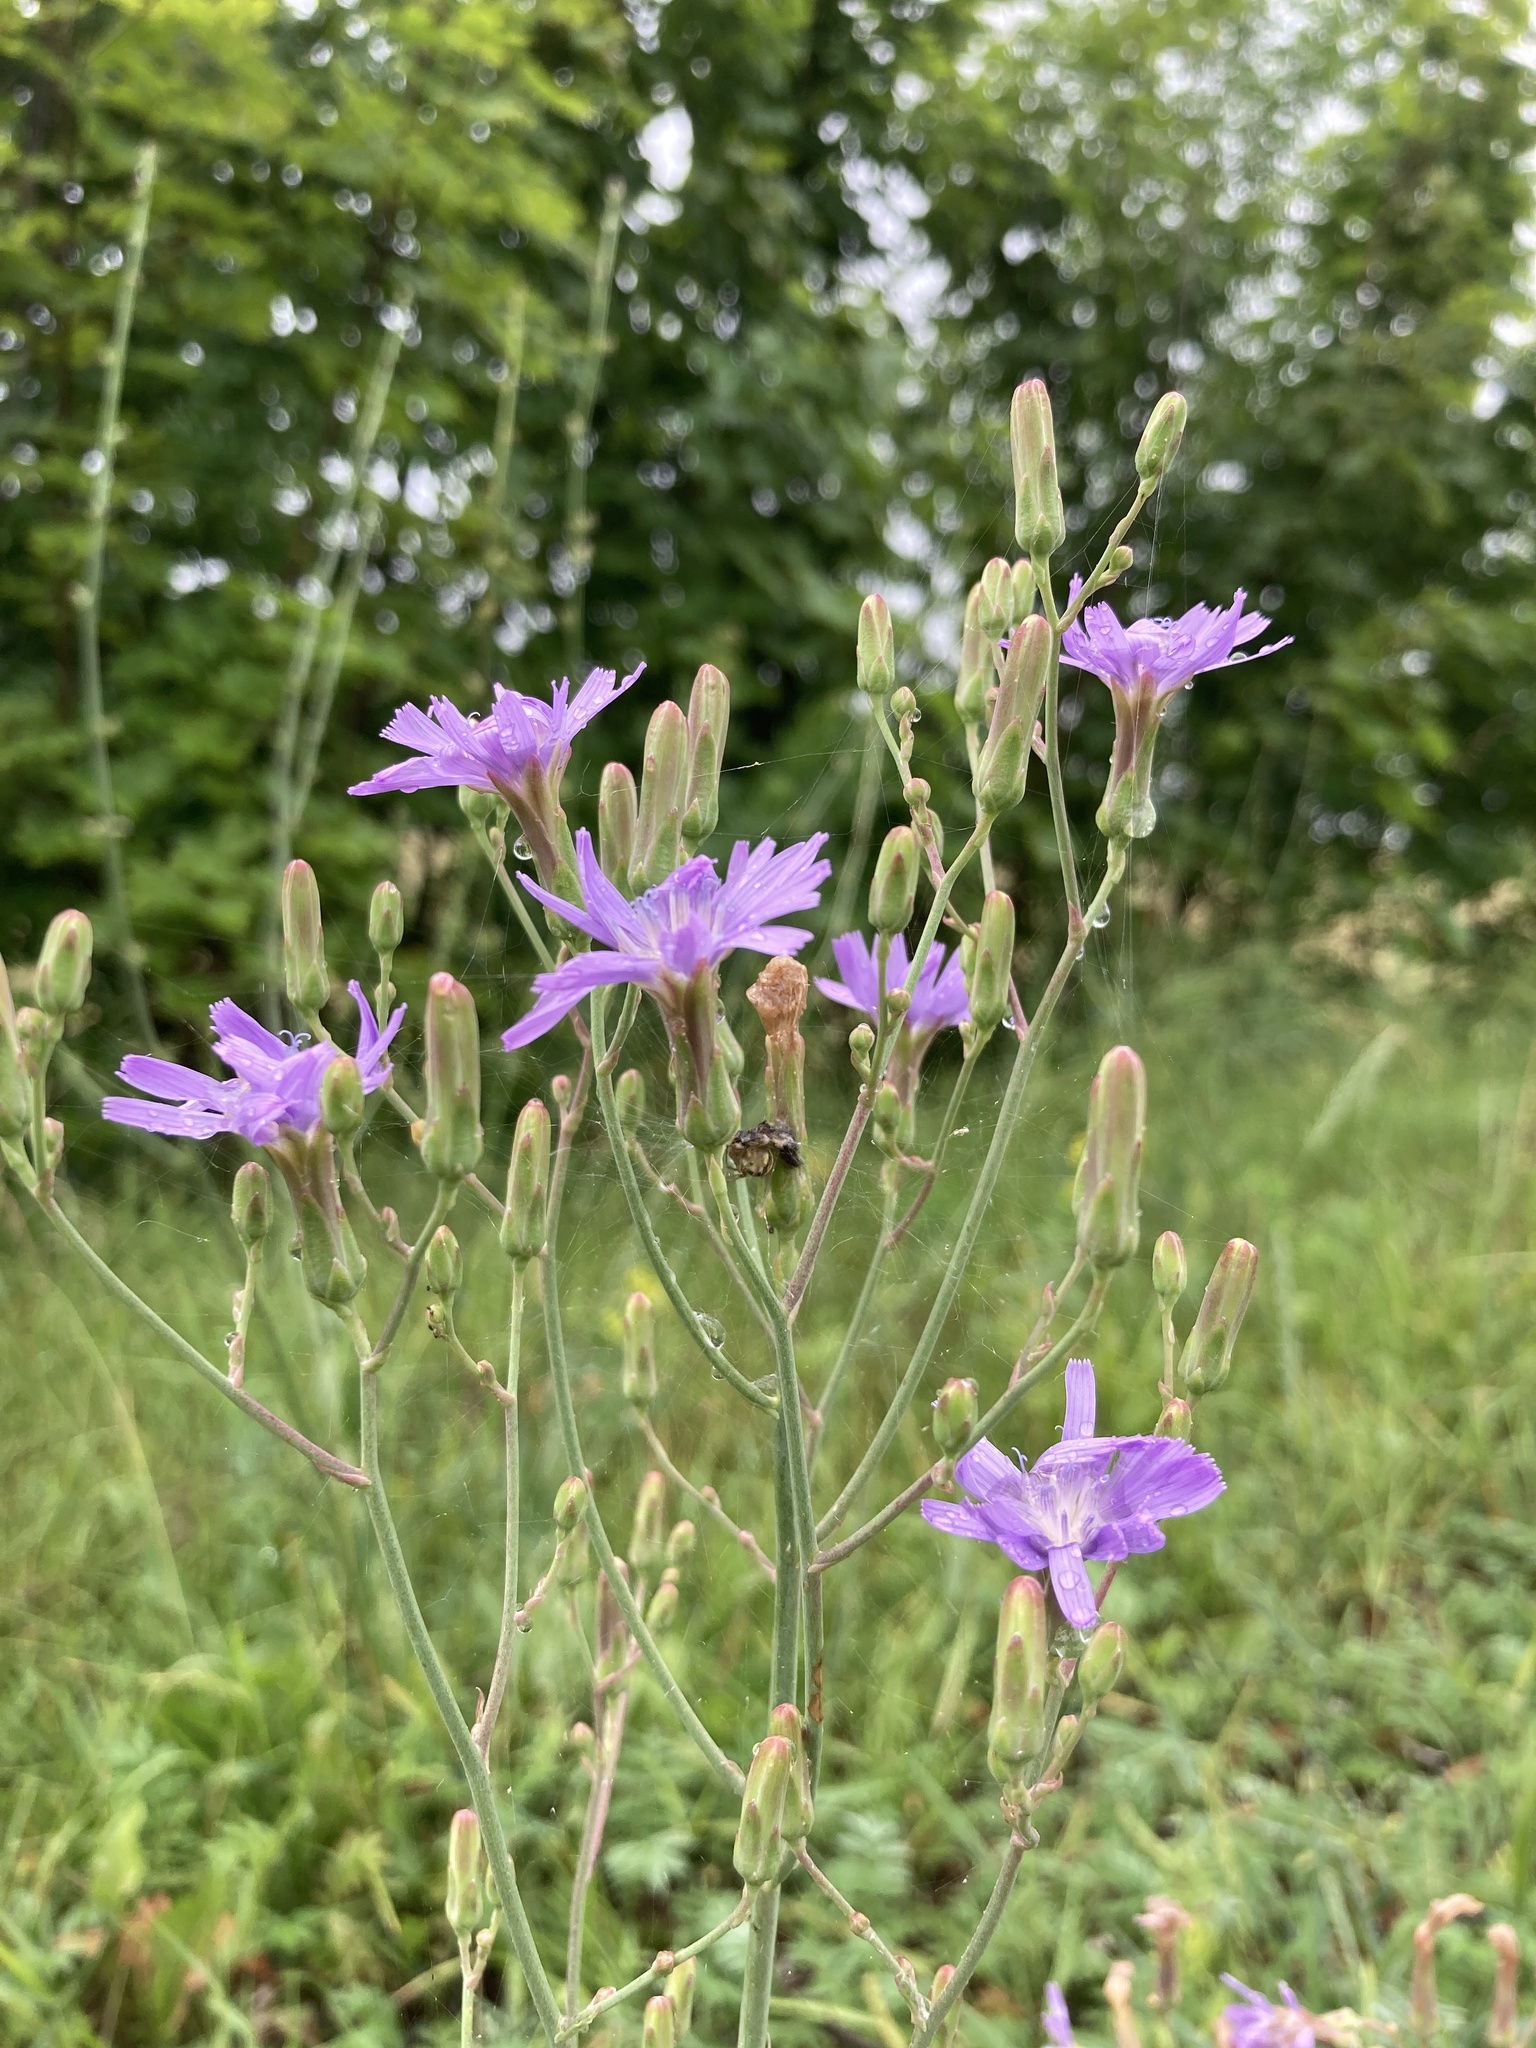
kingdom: Plantae
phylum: Tracheophyta
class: Magnoliopsida
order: Asterales
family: Asteraceae
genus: Lactuca
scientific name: Lactuca tatarica
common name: Blue lettuce
